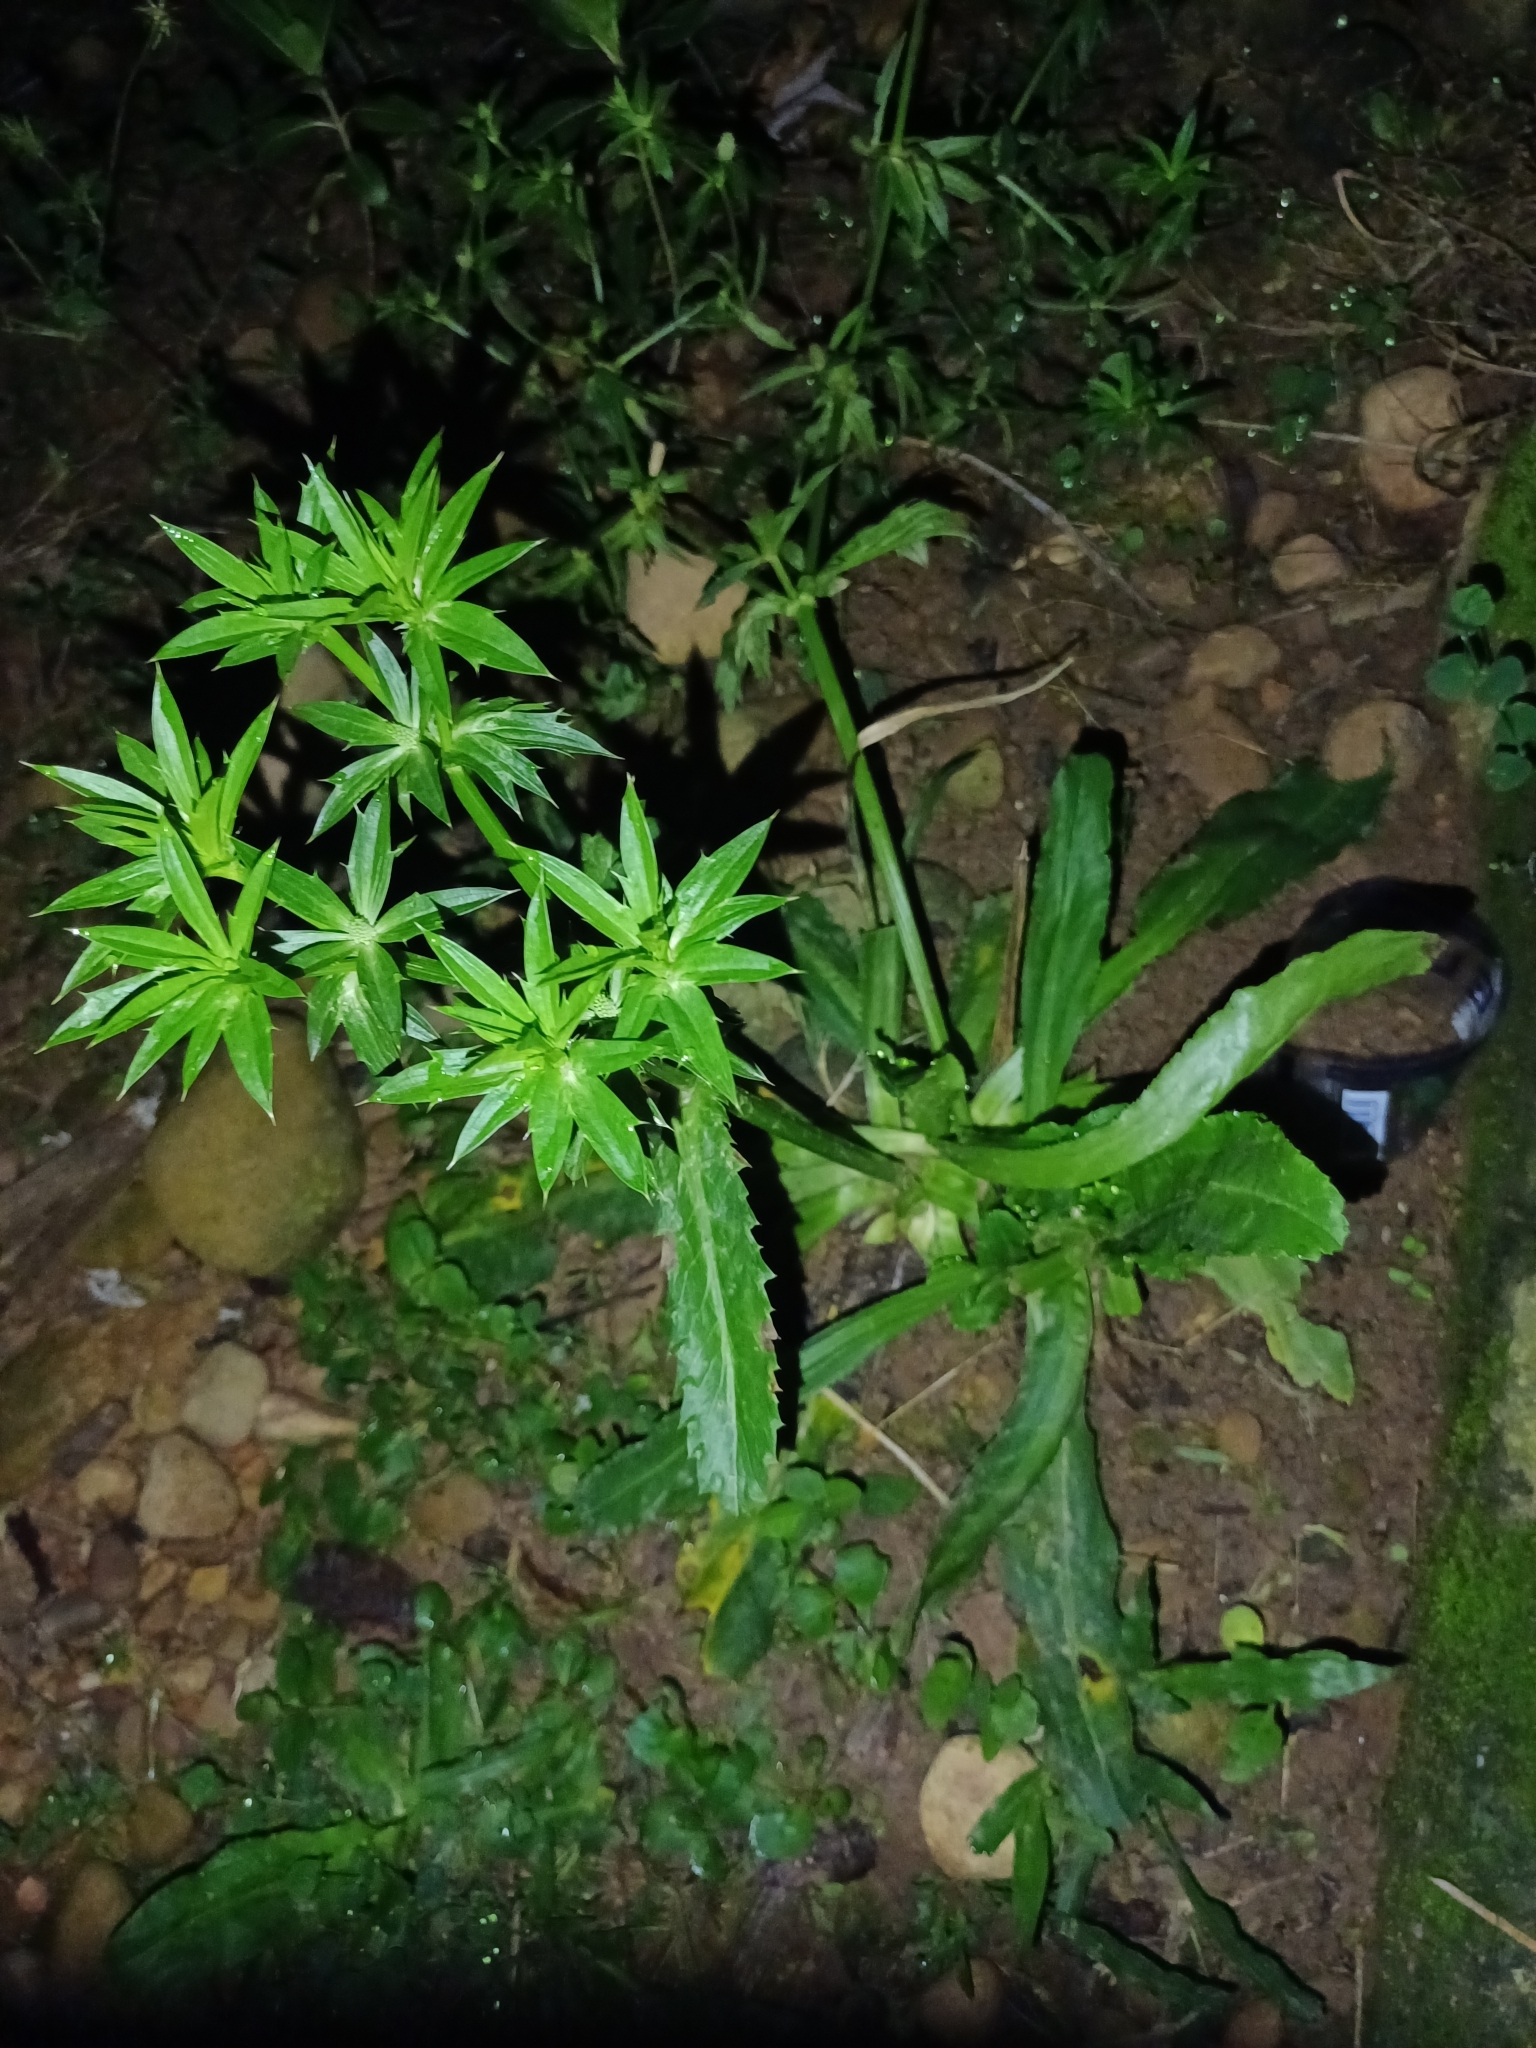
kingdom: Plantae
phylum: Tracheophyta
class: Magnoliopsida
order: Apiales
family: Apiaceae
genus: Eryngium
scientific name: Eryngium foetidum
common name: Fitweed
